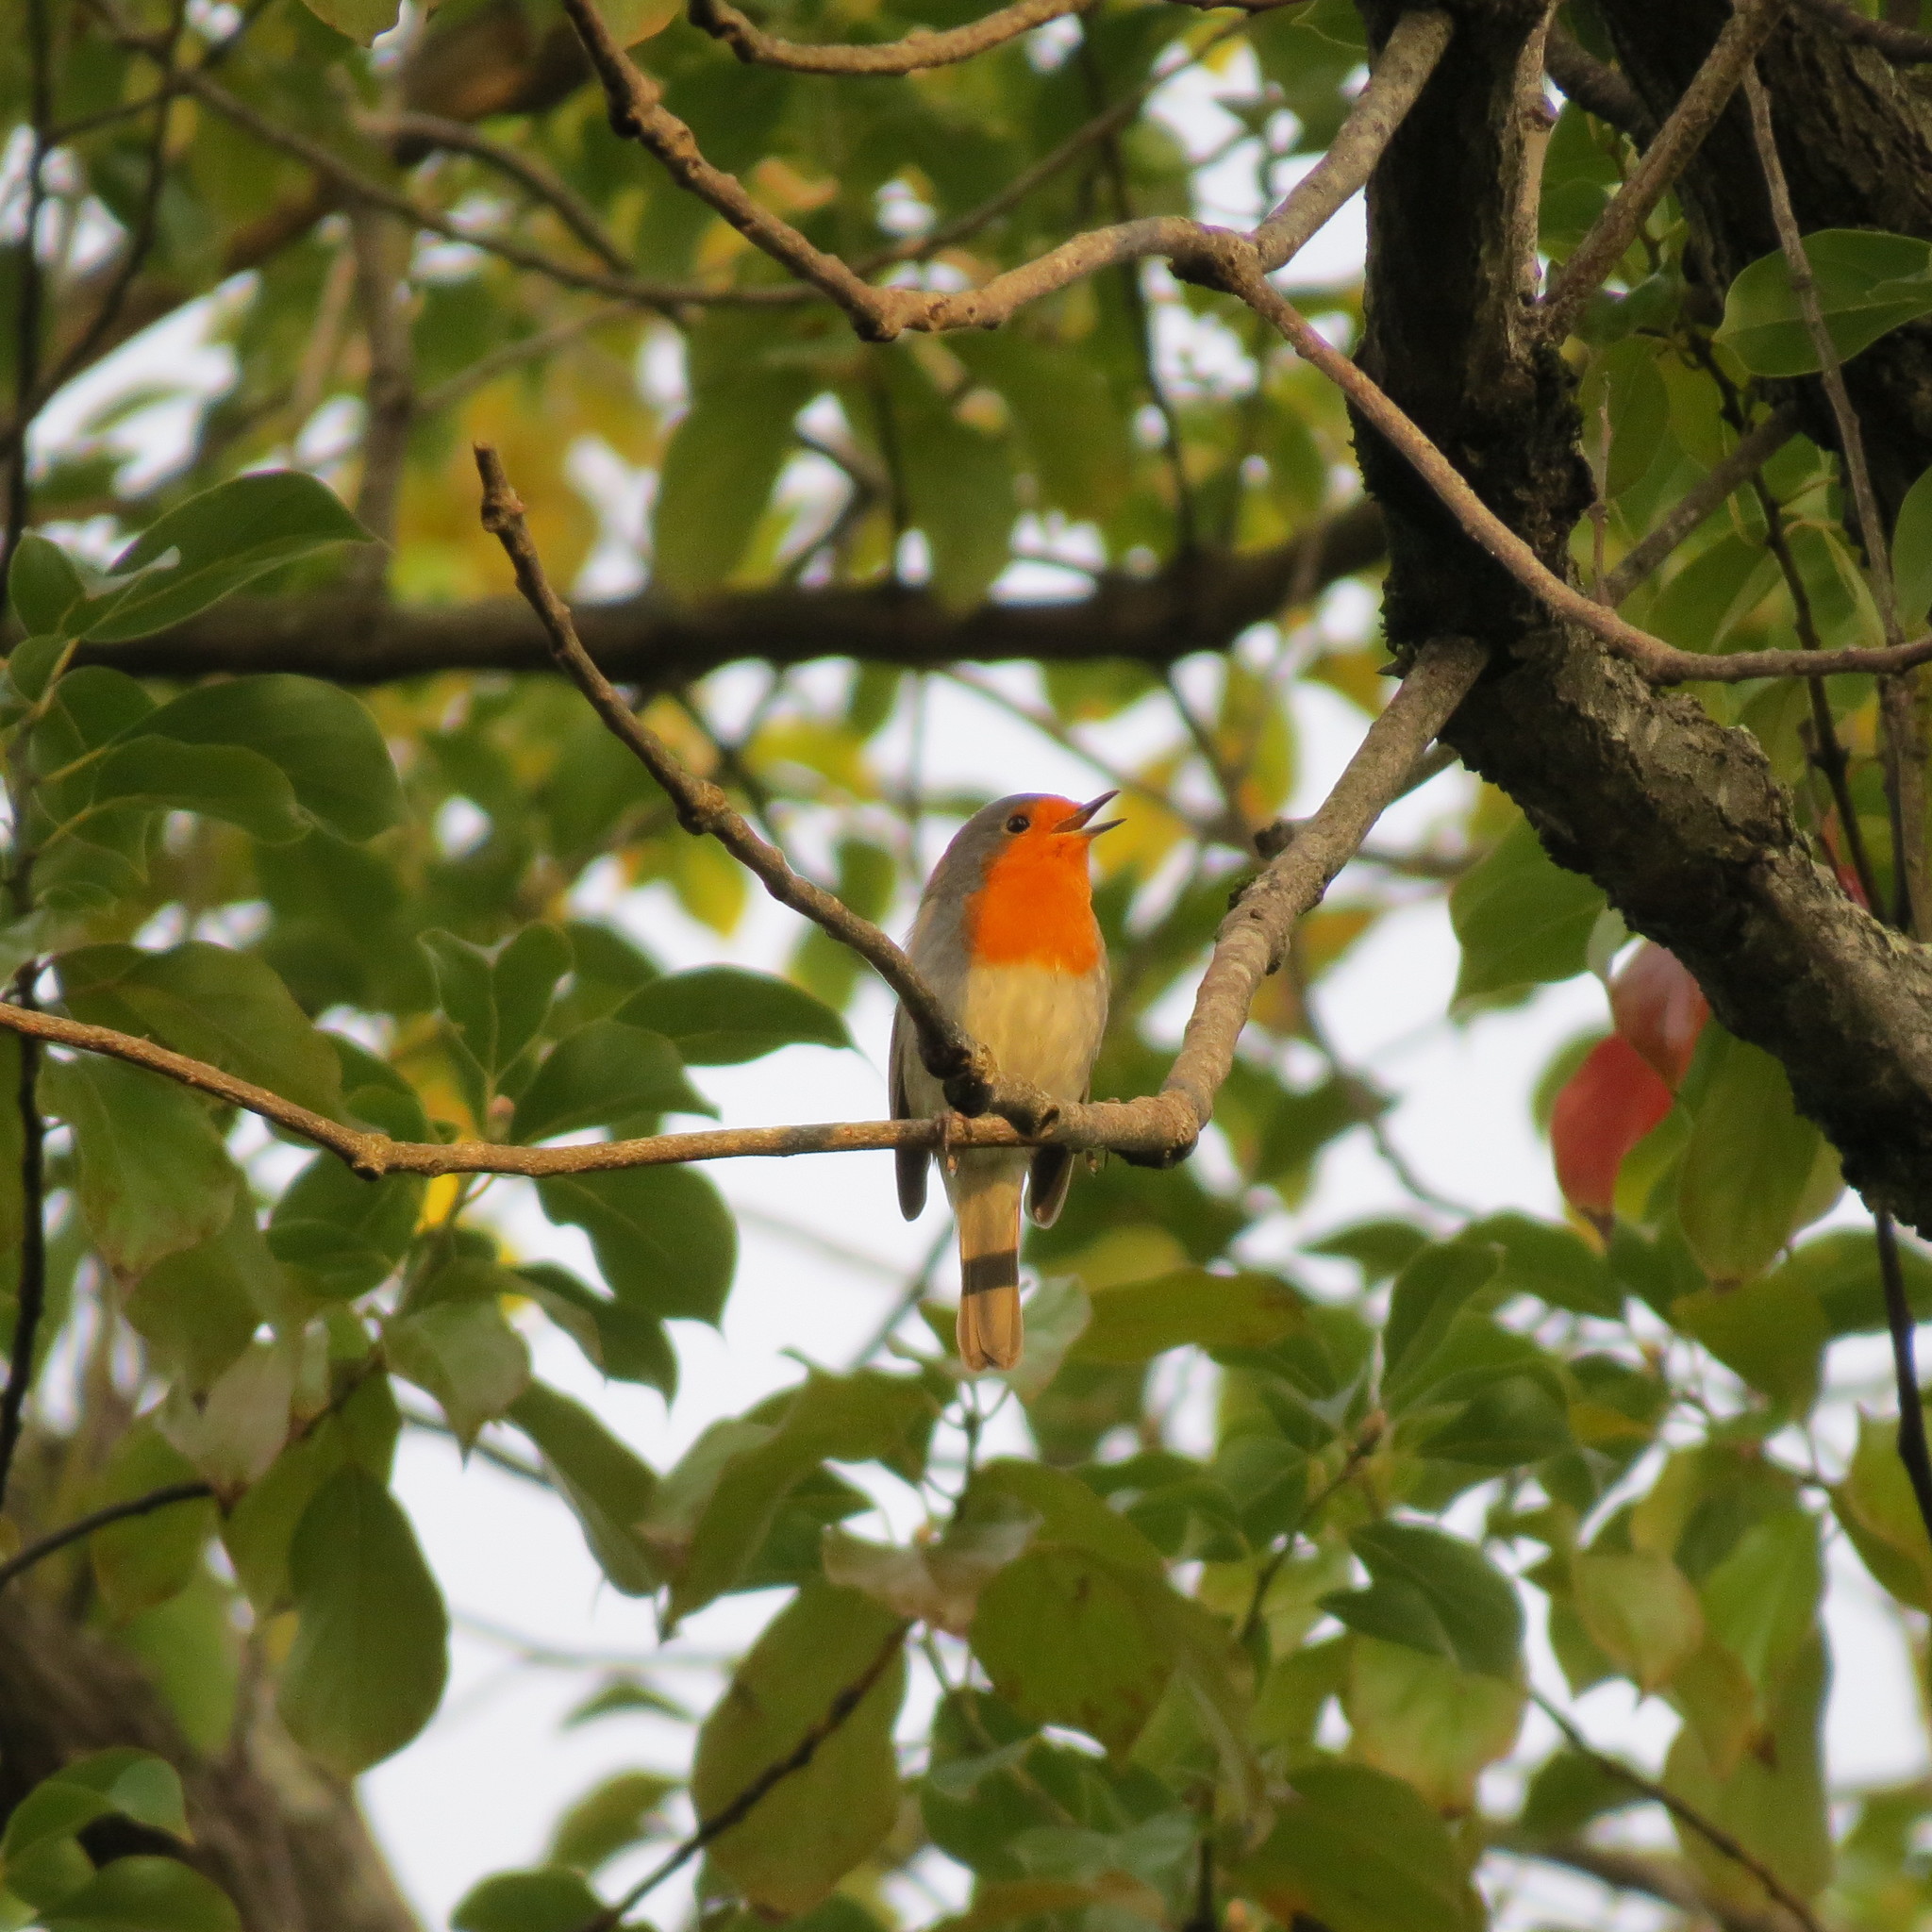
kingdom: Animalia
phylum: Chordata
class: Aves
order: Passeriformes
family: Muscicapidae
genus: Erithacus
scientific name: Erithacus rubecula
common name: European robin
